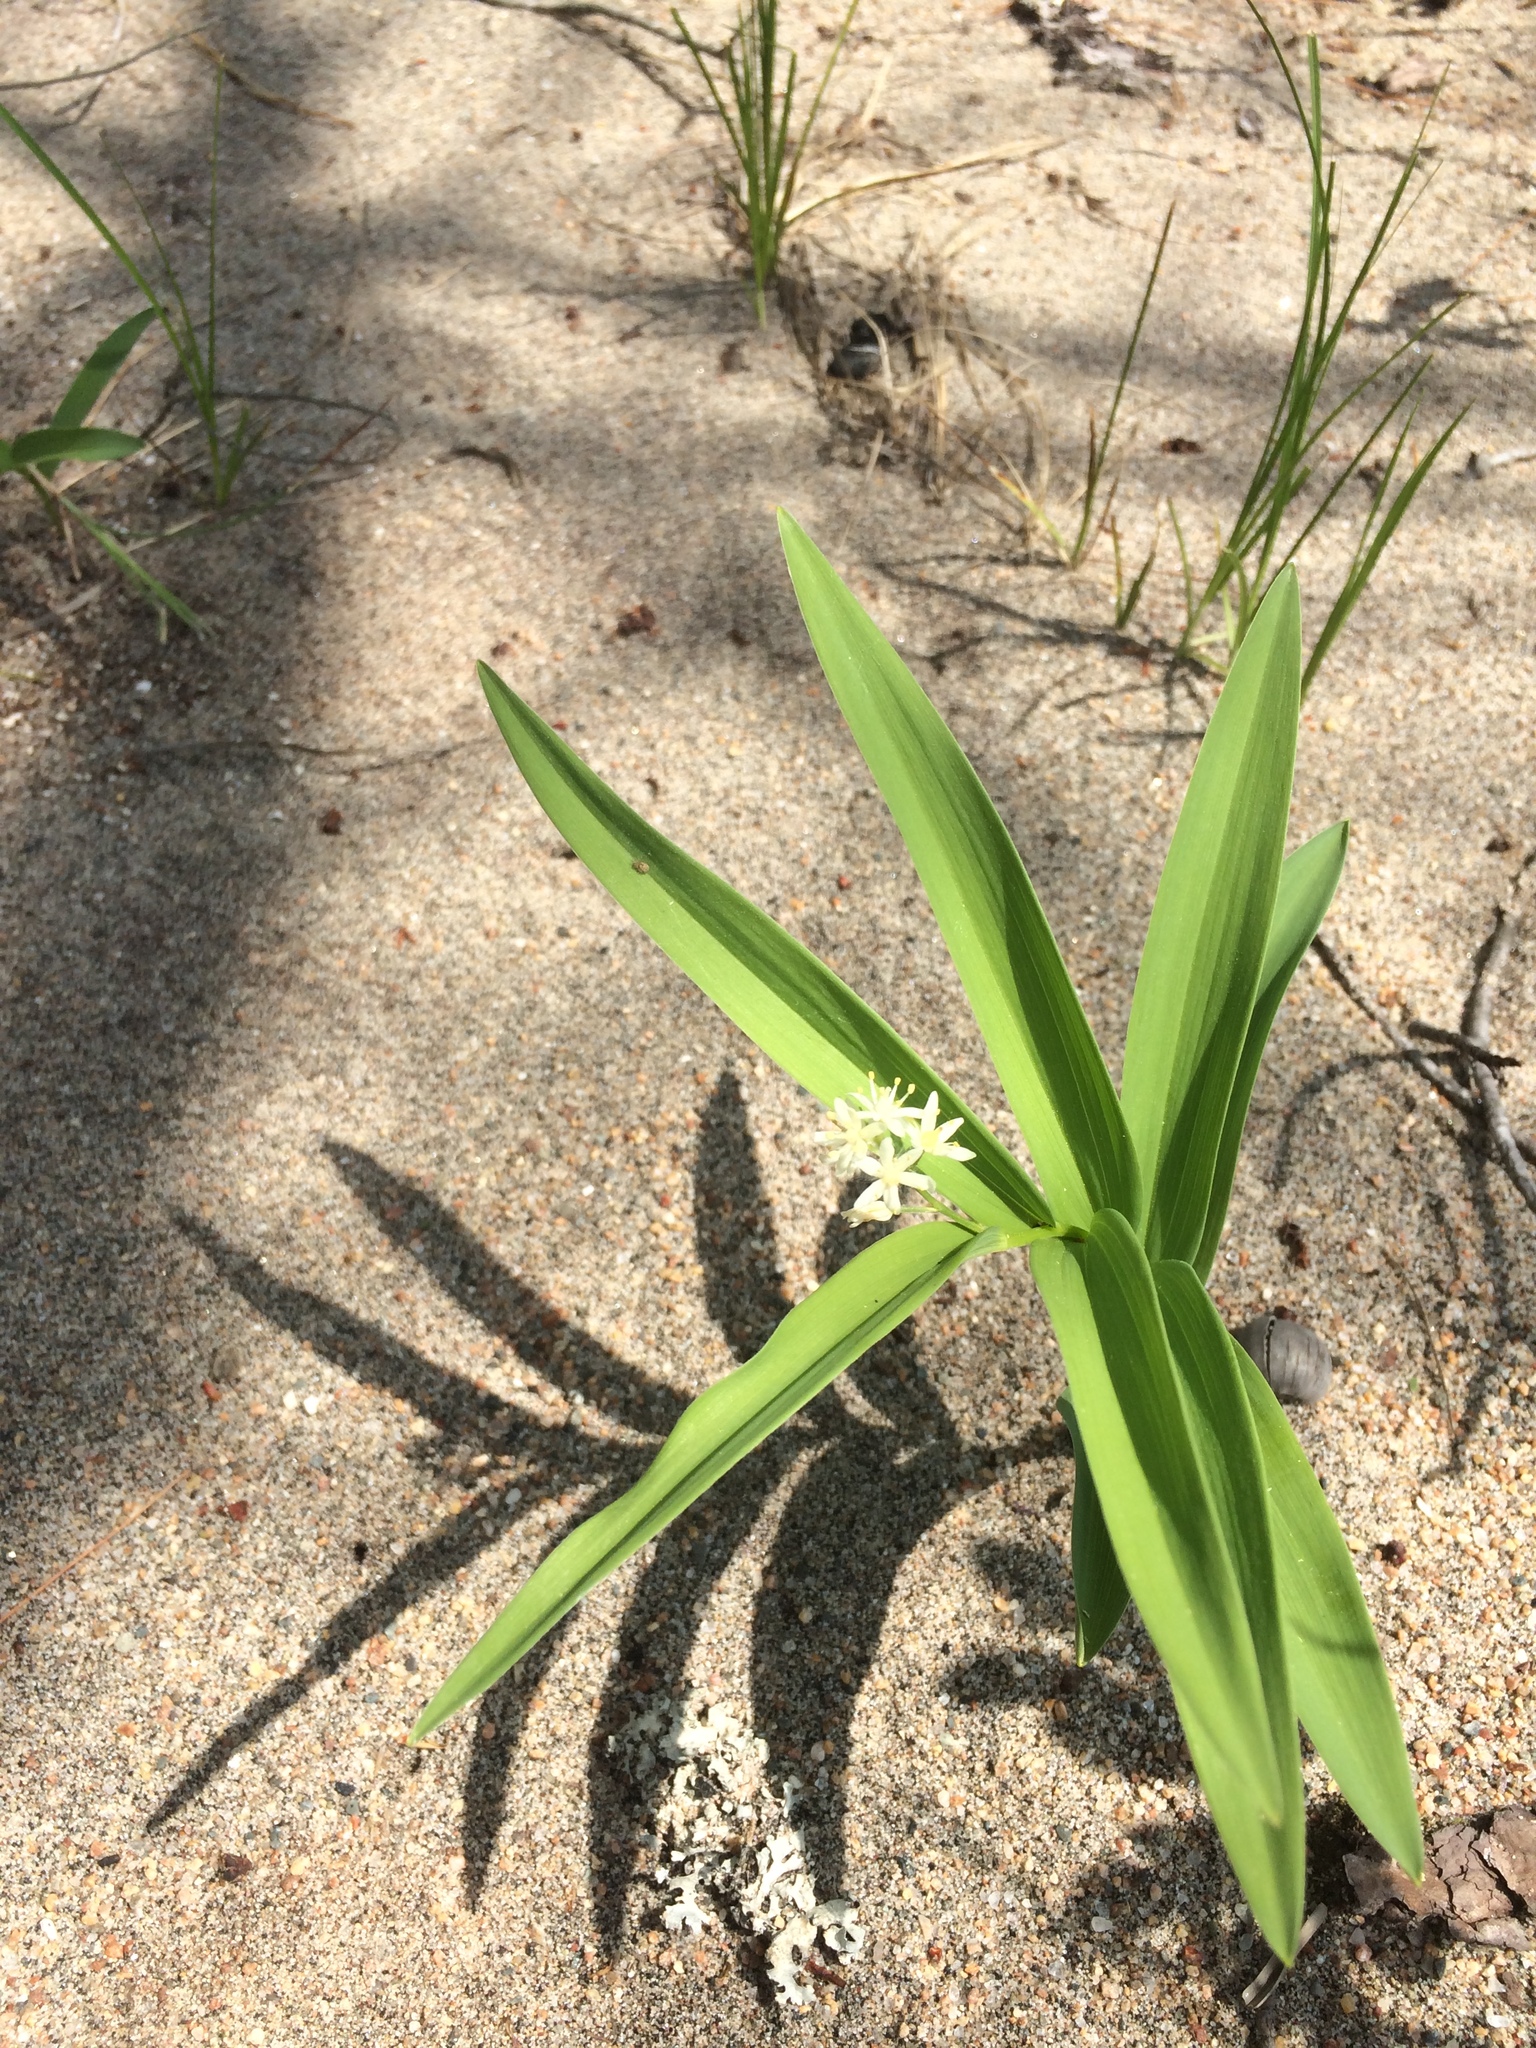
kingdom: Plantae
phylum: Tracheophyta
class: Liliopsida
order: Asparagales
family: Asparagaceae
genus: Maianthemum
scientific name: Maianthemum stellatum
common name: Little false solomon's seal
